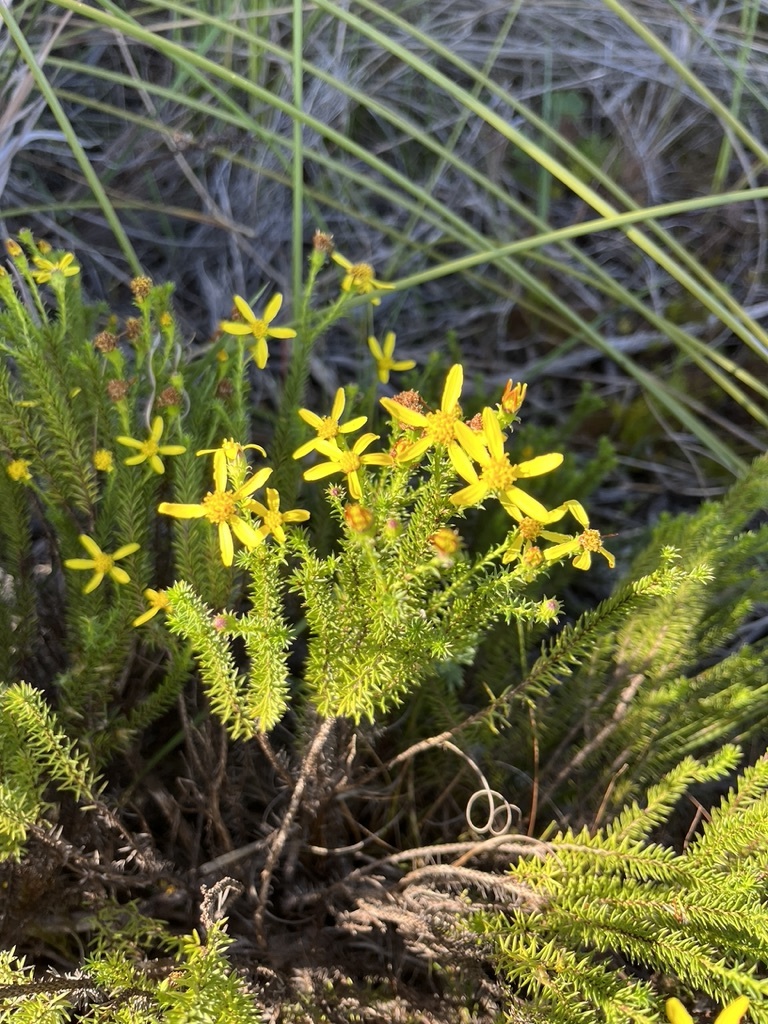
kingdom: Plantae
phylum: Tracheophyta
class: Magnoliopsida
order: Asterales
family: Asteraceae
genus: Senecio
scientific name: Senecio pinifolius
